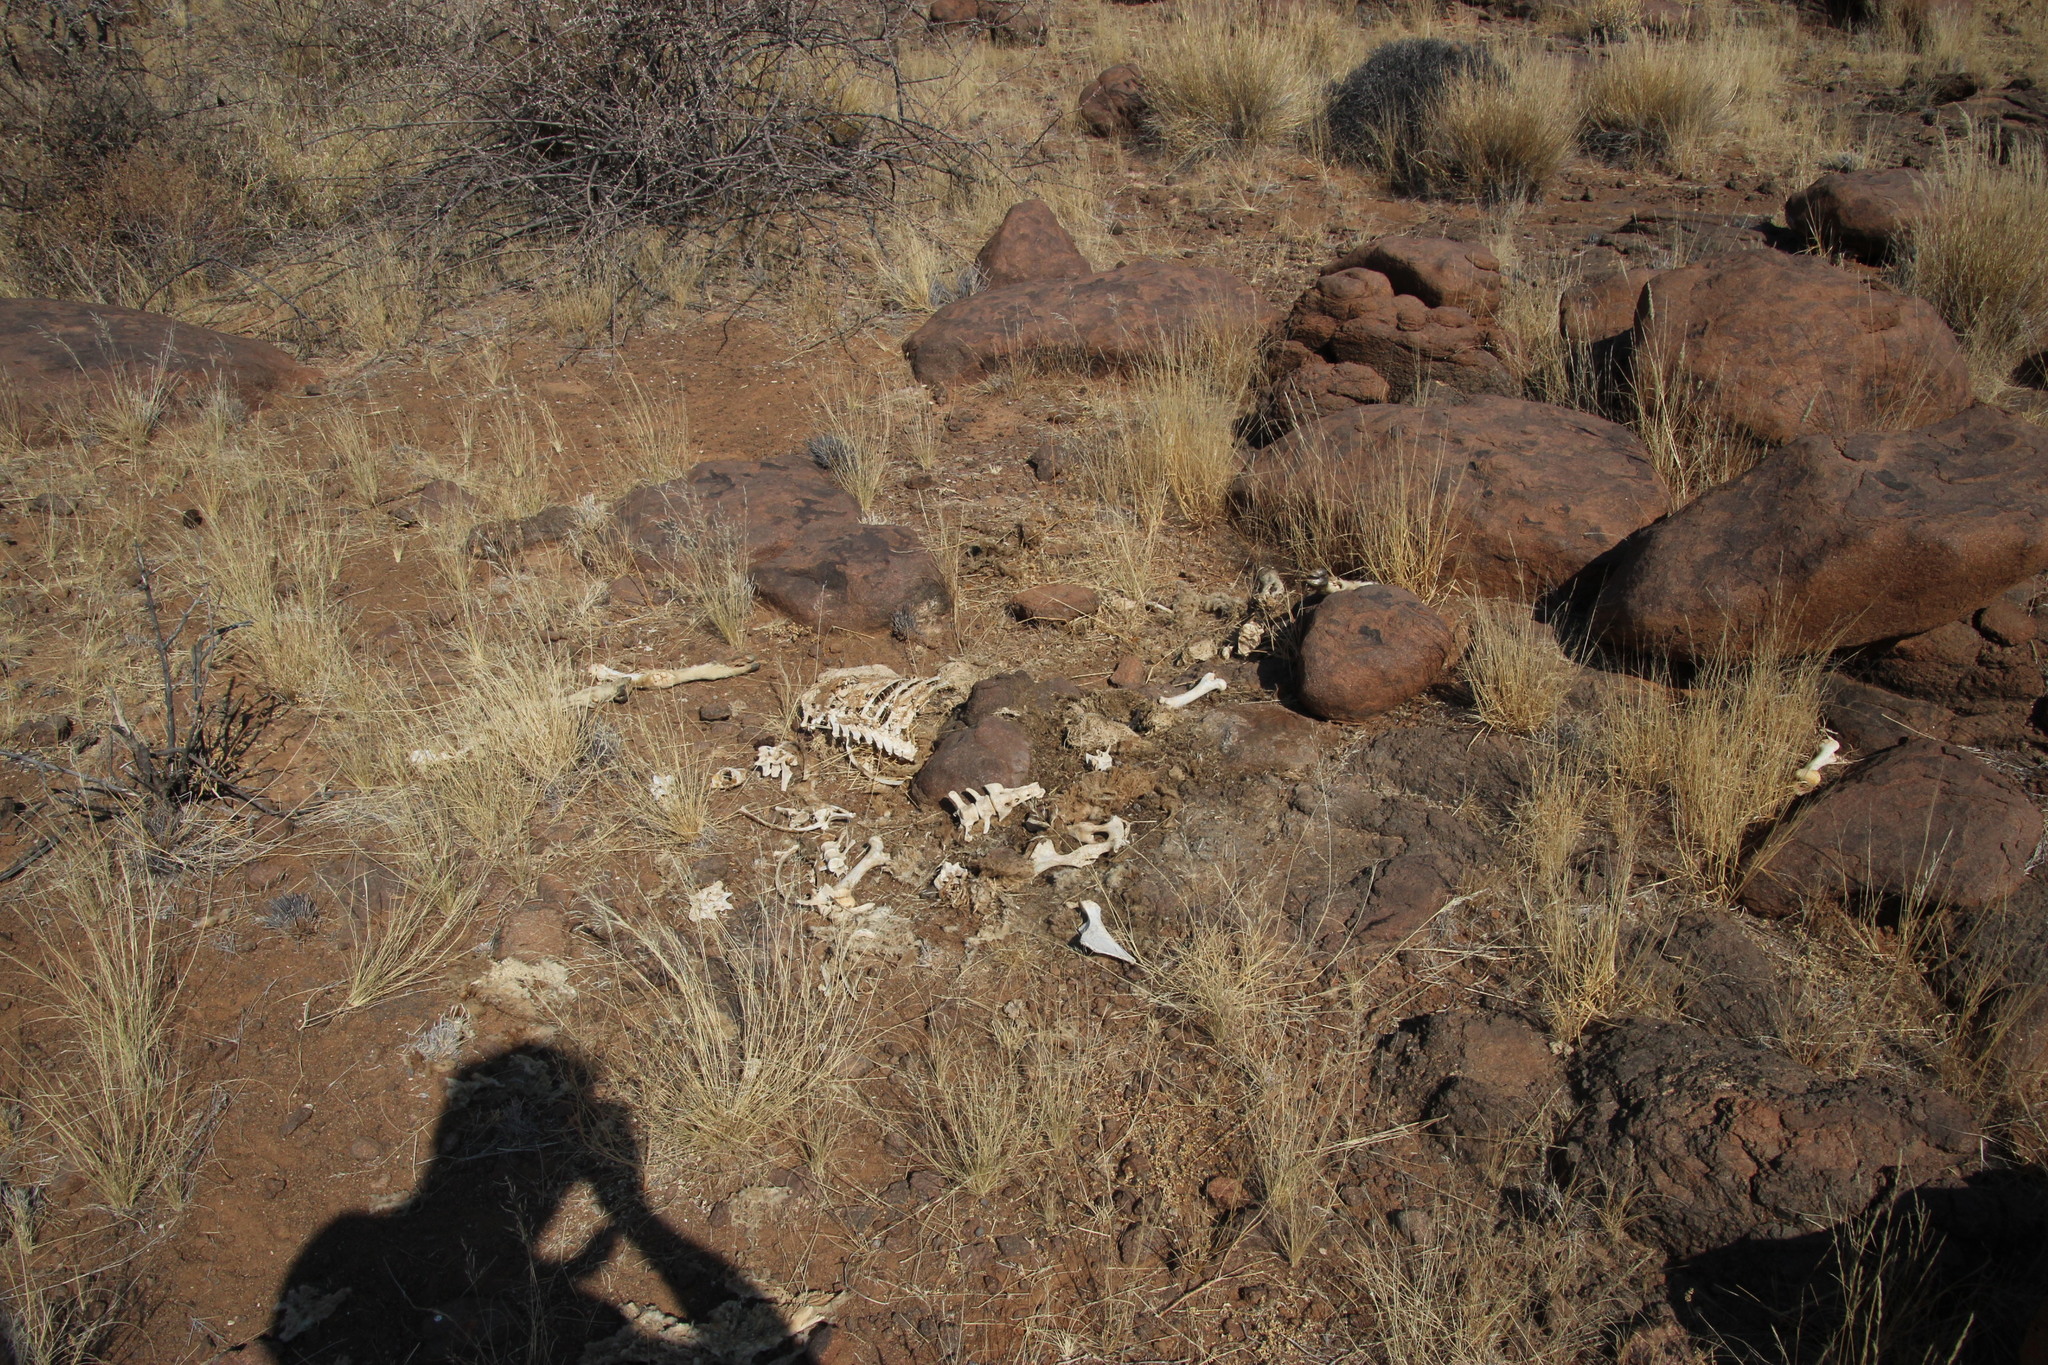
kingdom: Animalia
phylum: Chordata
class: Mammalia
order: Artiodactyla
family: Bovidae
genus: Capra
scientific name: Capra hircus
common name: Domestic goat
